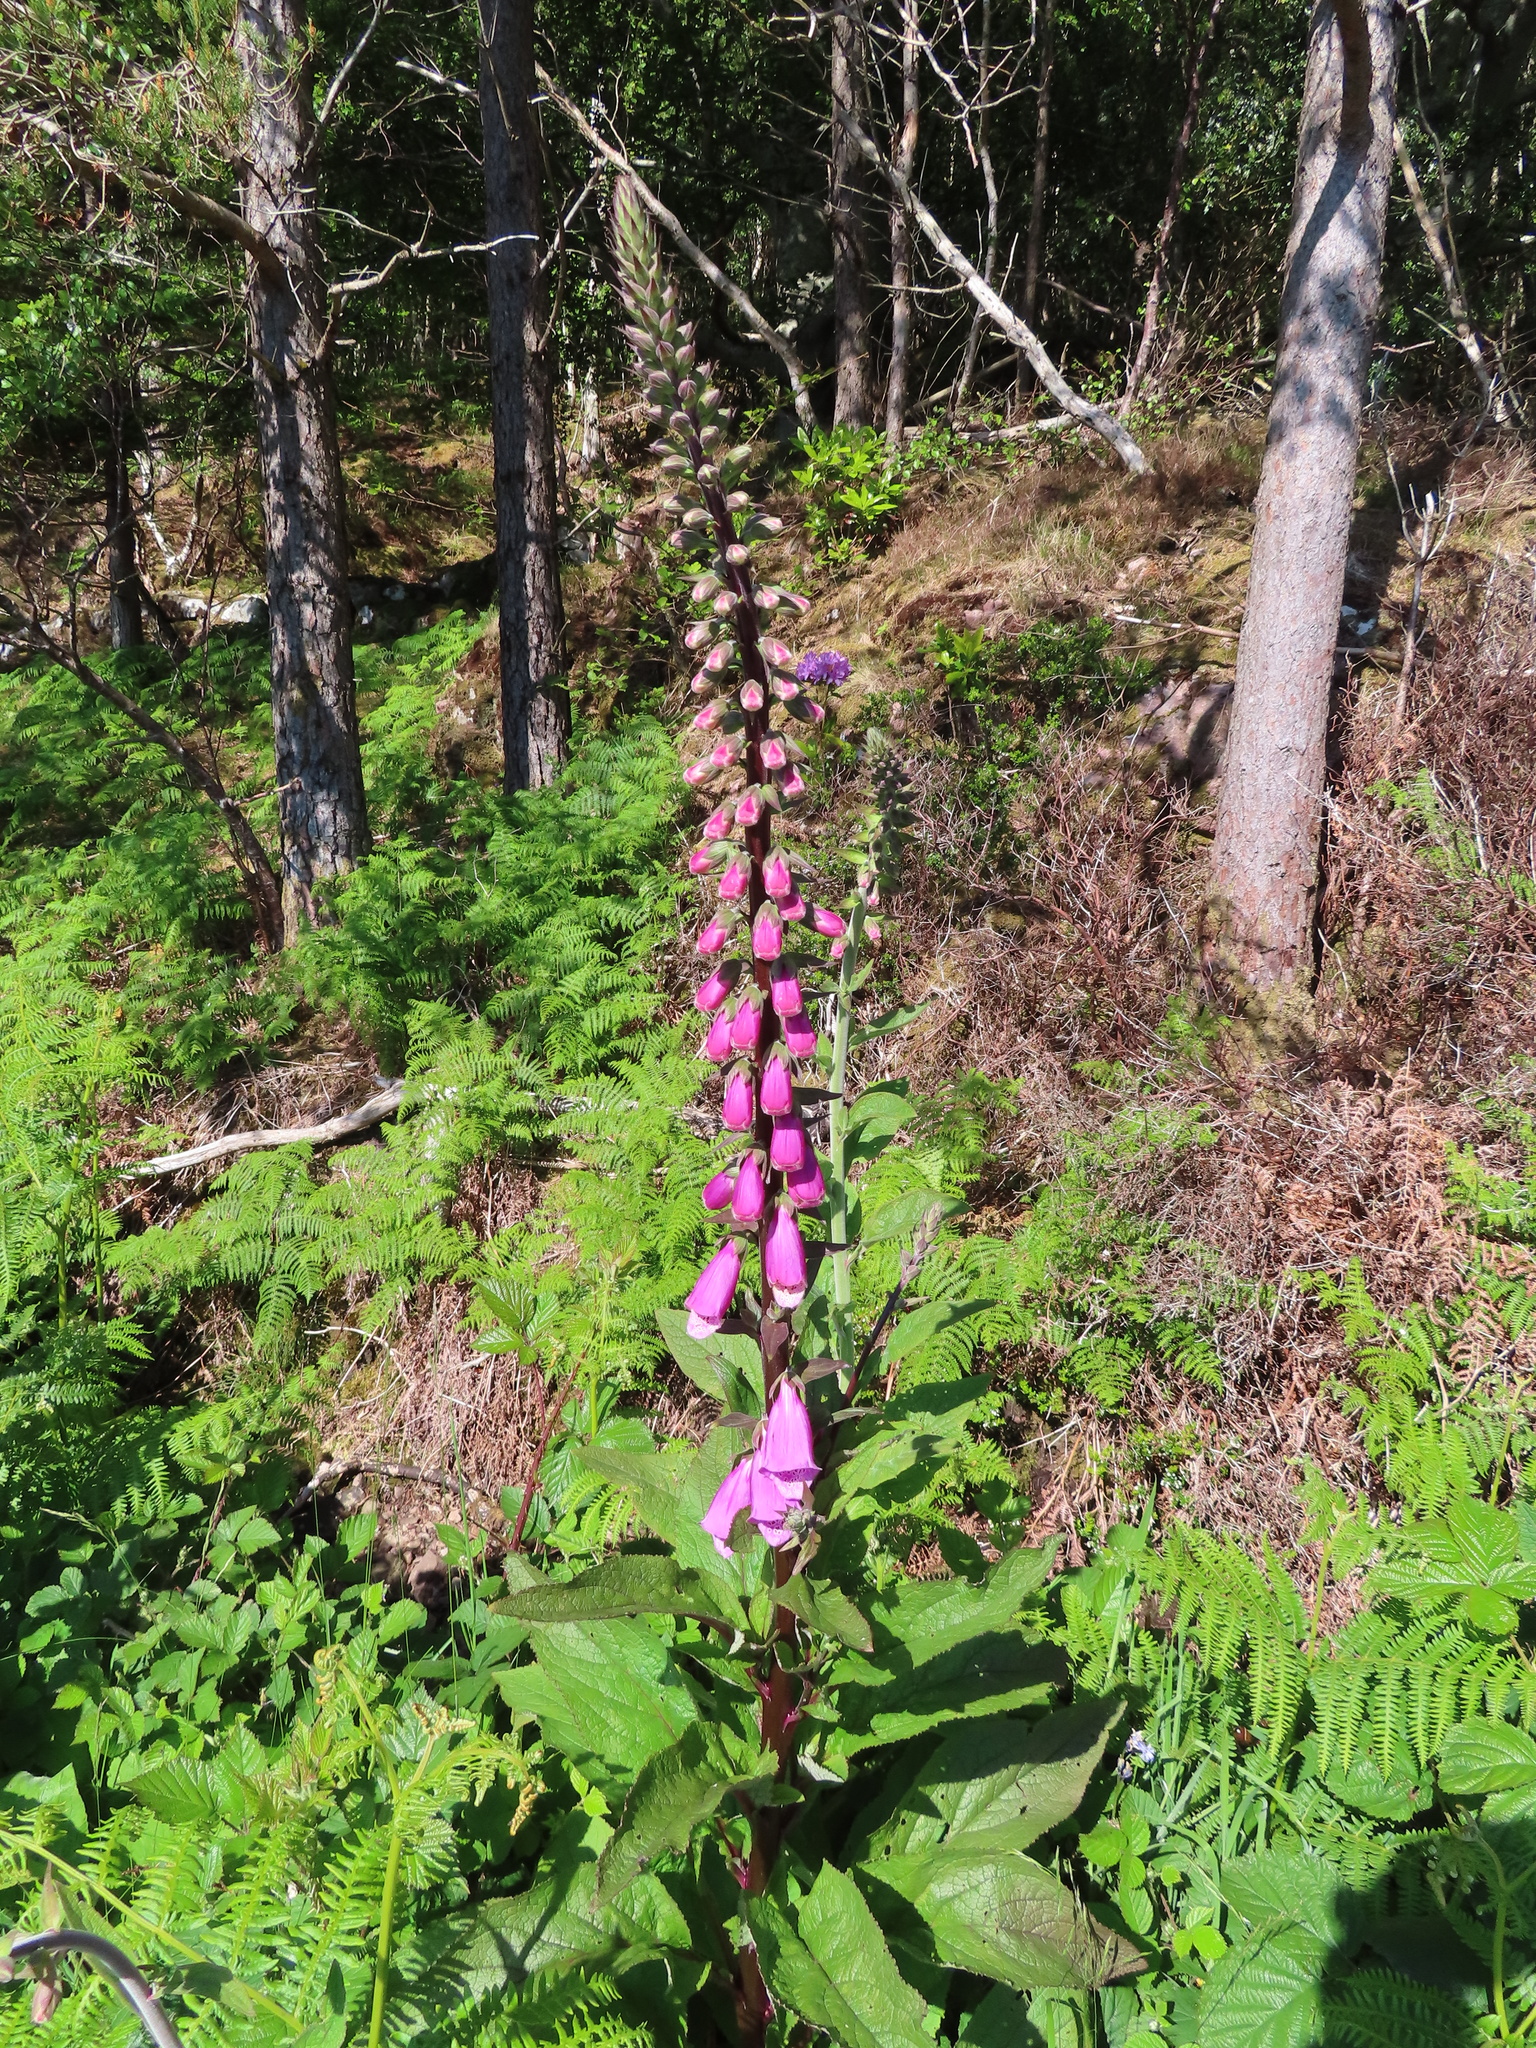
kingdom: Plantae
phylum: Tracheophyta
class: Magnoliopsida
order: Lamiales
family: Plantaginaceae
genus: Digitalis
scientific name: Digitalis purpurea
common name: Foxglove
